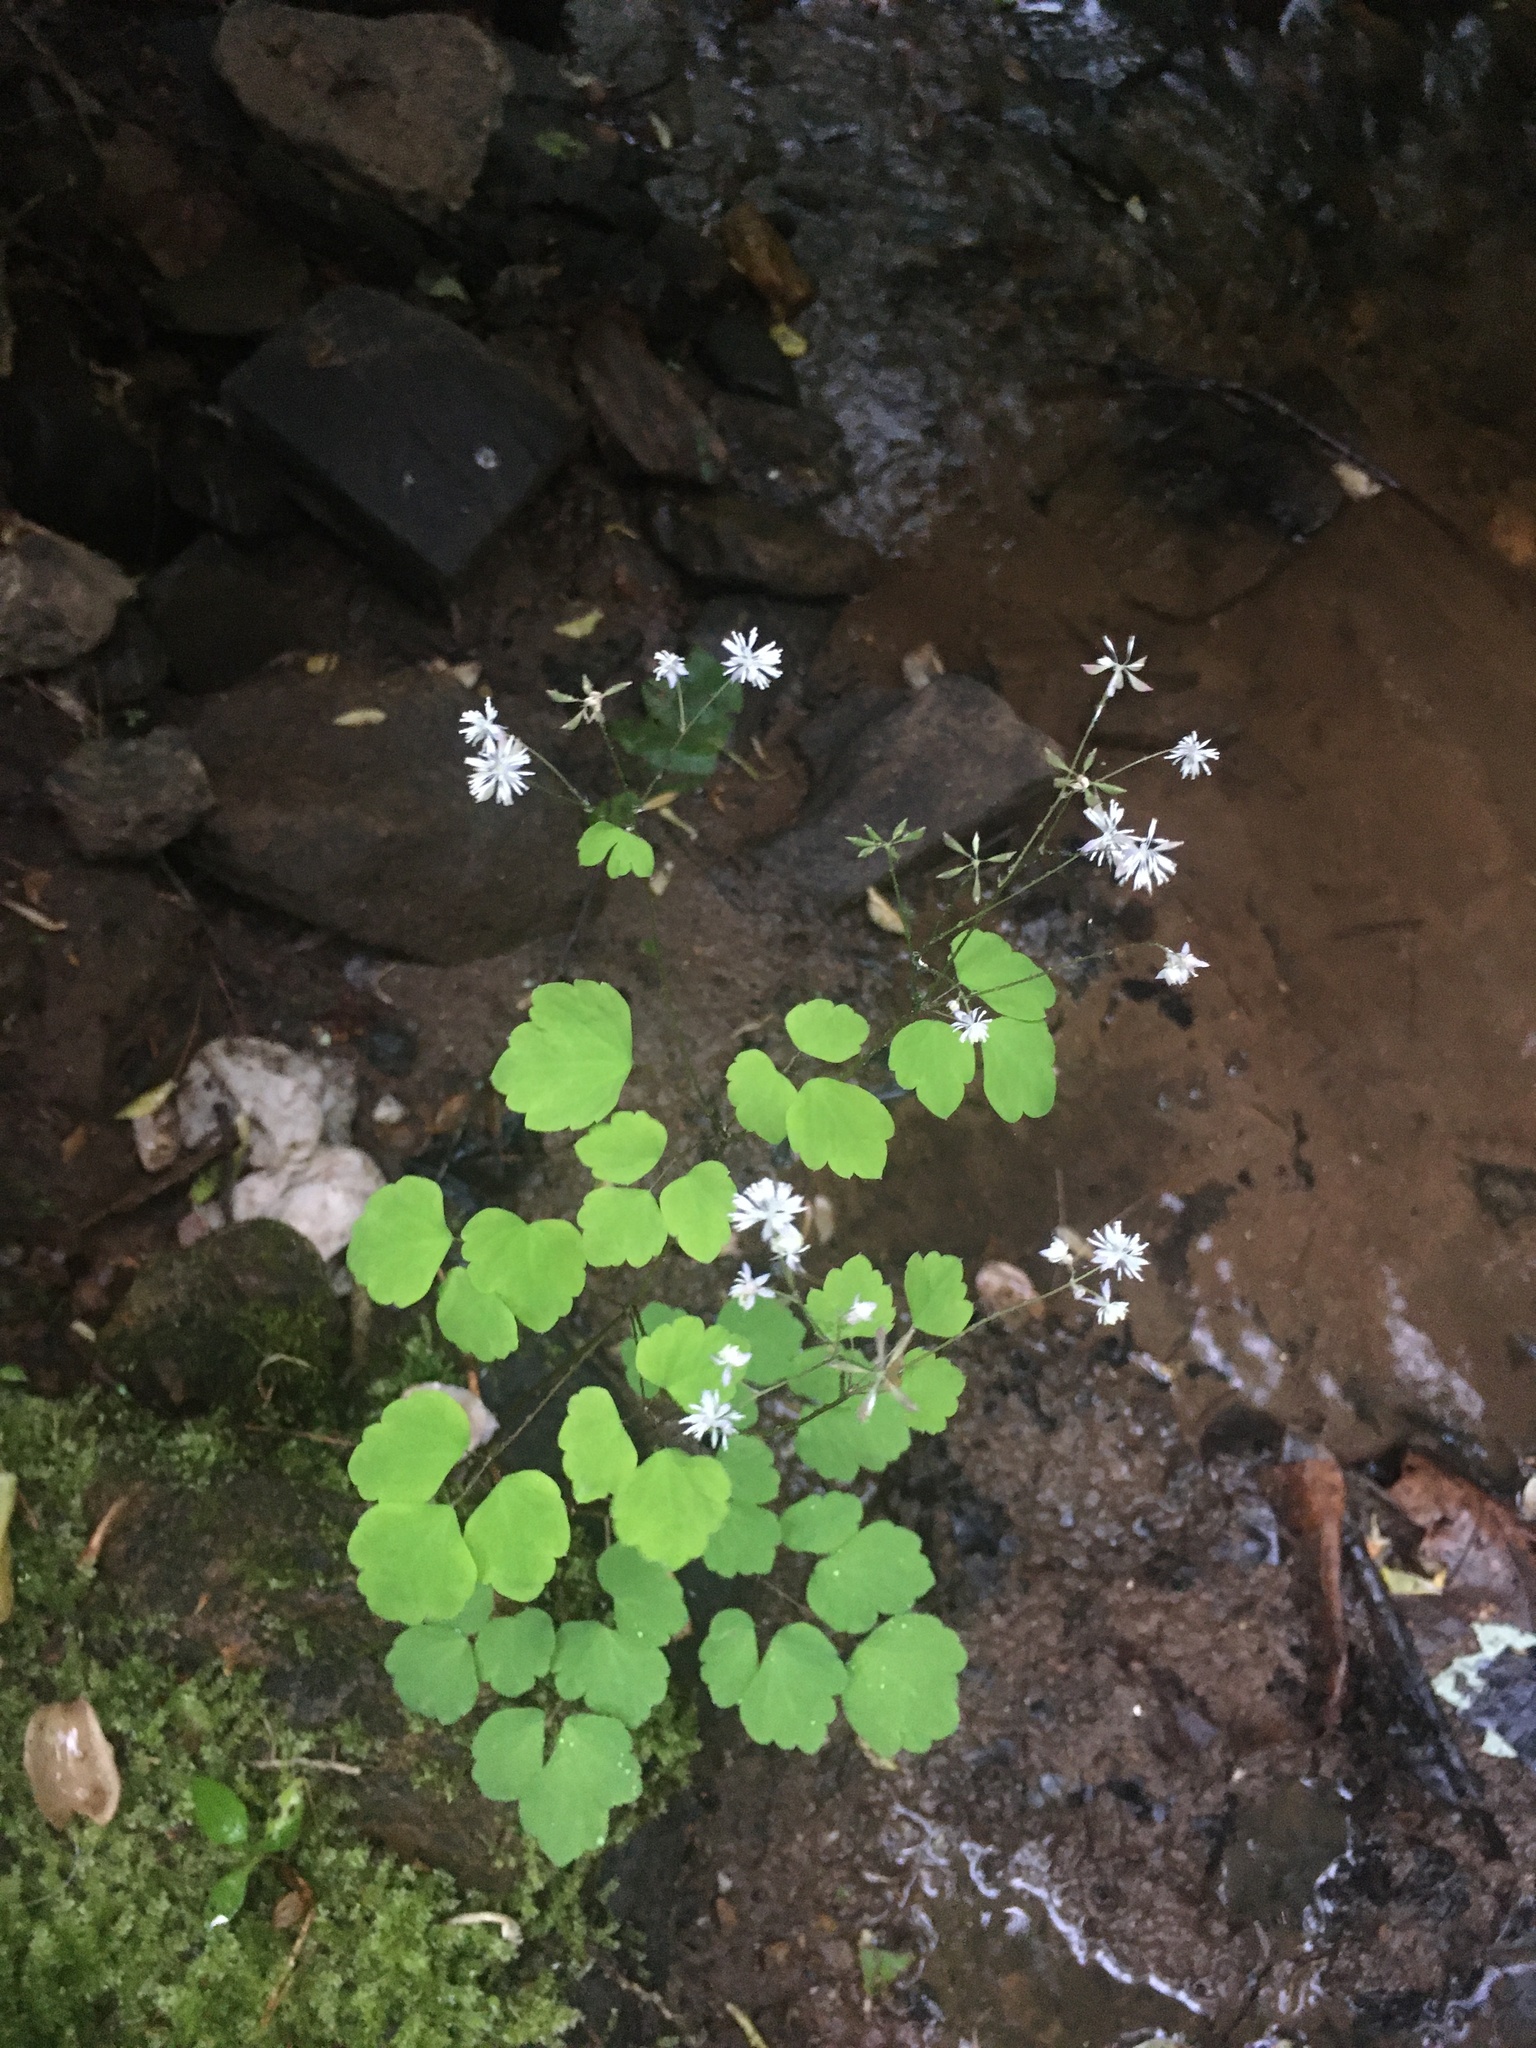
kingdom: Plantae
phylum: Tracheophyta
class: Magnoliopsida
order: Ranunculales
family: Ranunculaceae
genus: Thalictrum
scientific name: Thalictrum clavatum
